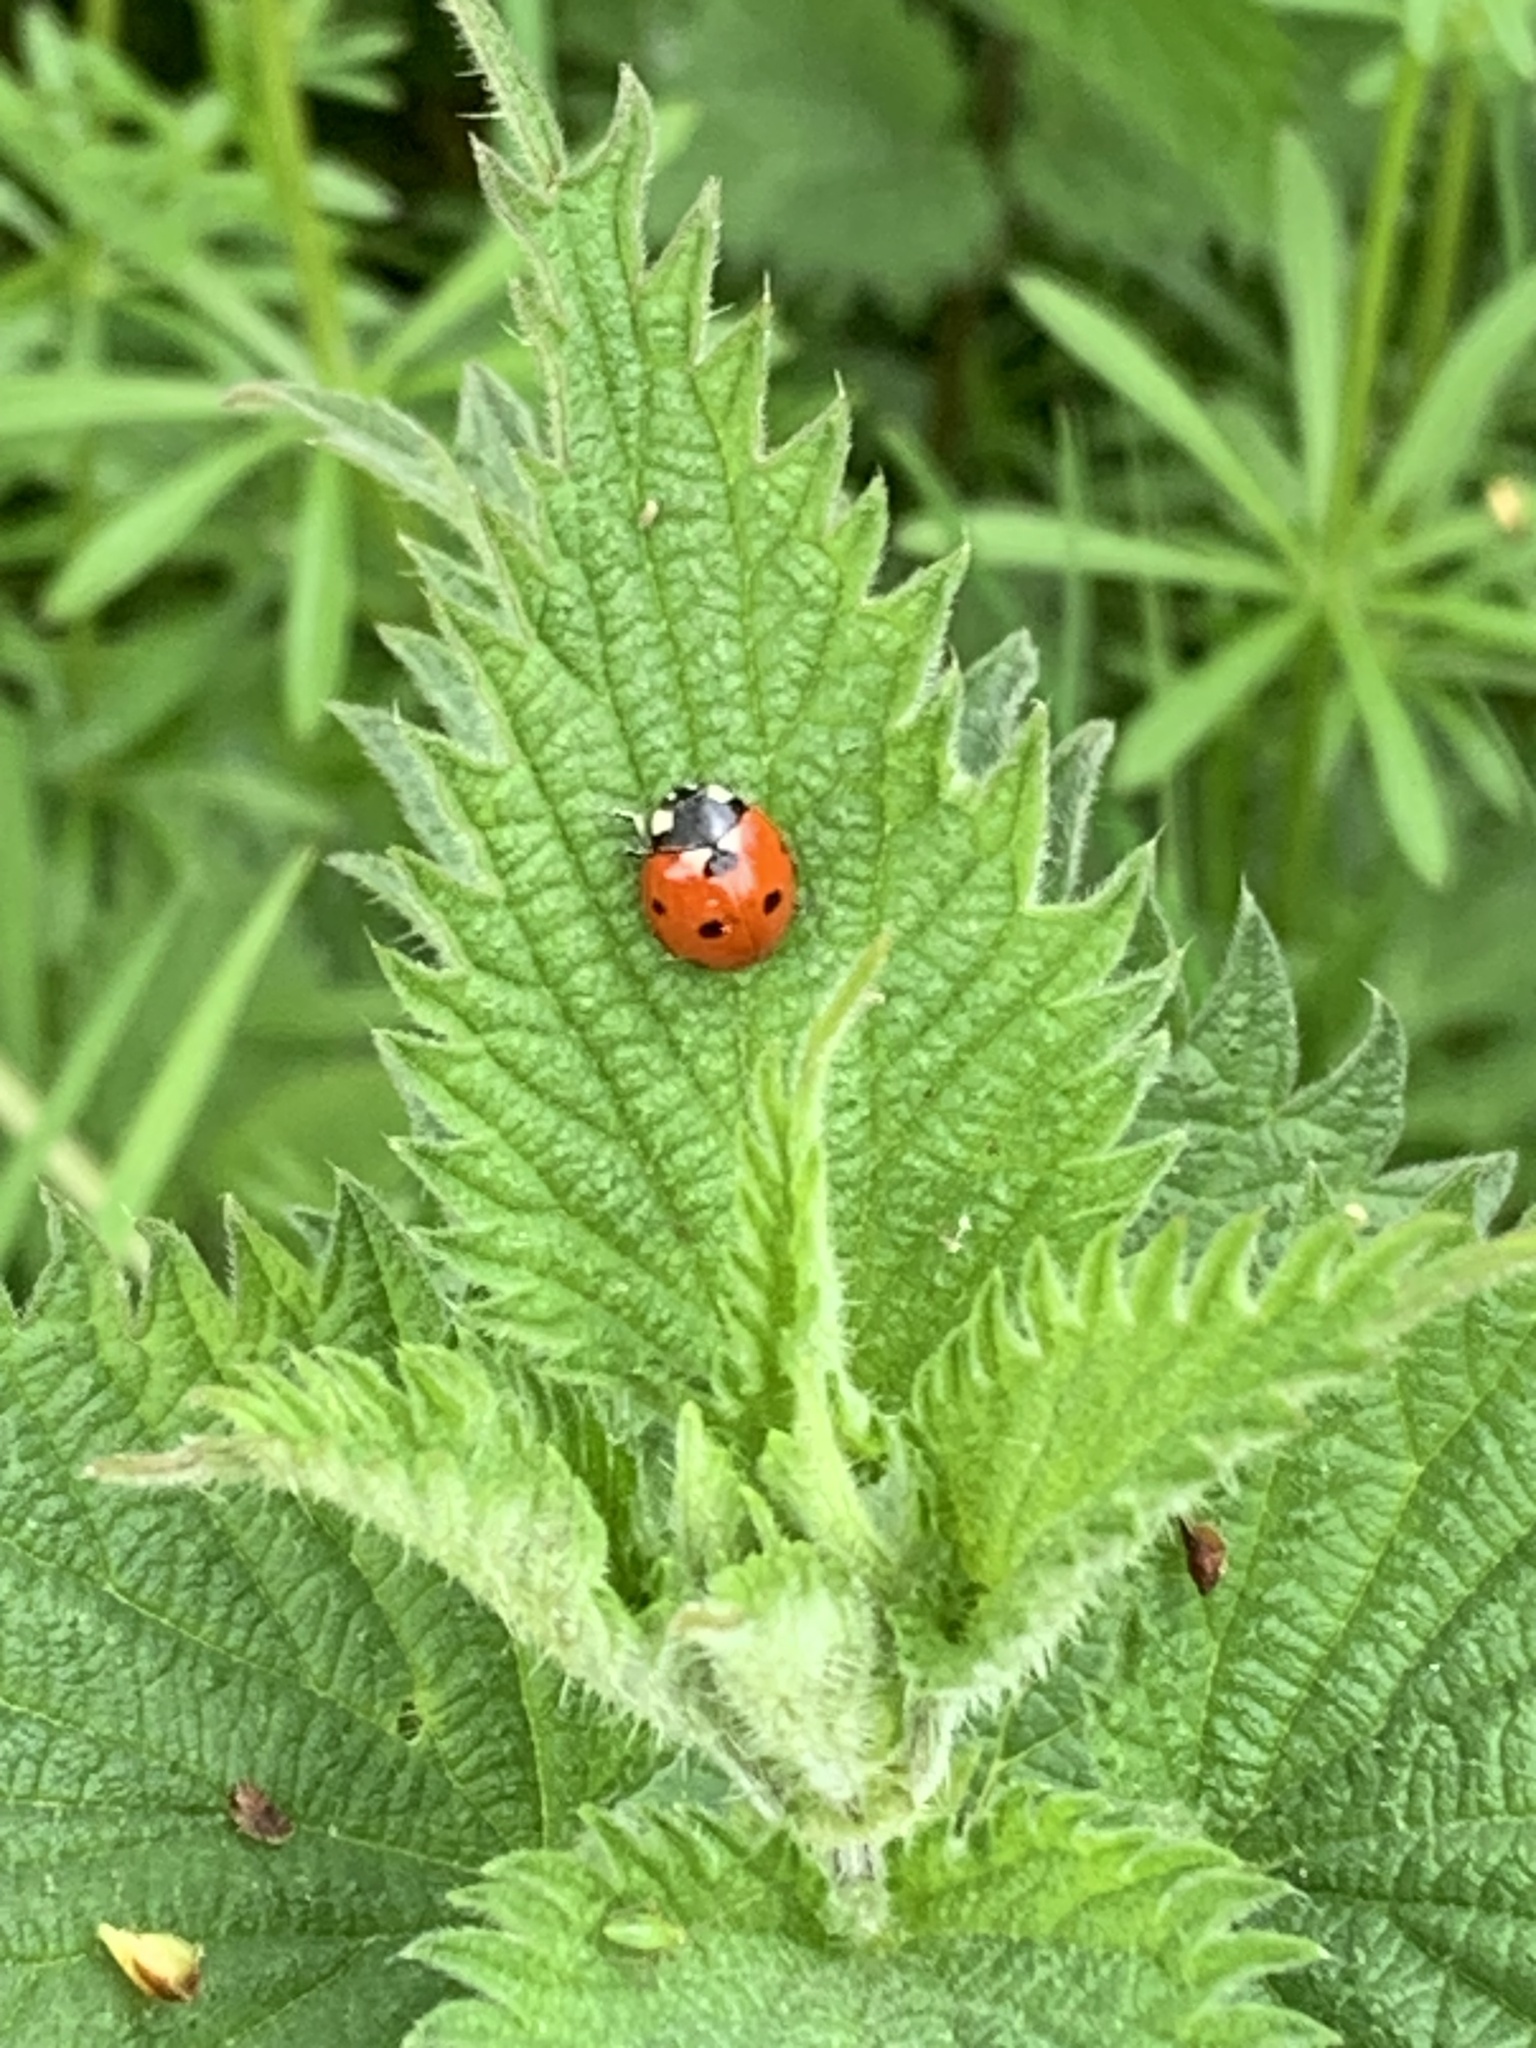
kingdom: Animalia
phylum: Arthropoda
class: Insecta
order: Coleoptera
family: Coccinellidae
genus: Coccinella
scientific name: Coccinella septempunctata
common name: Sevenspotted lady beetle
